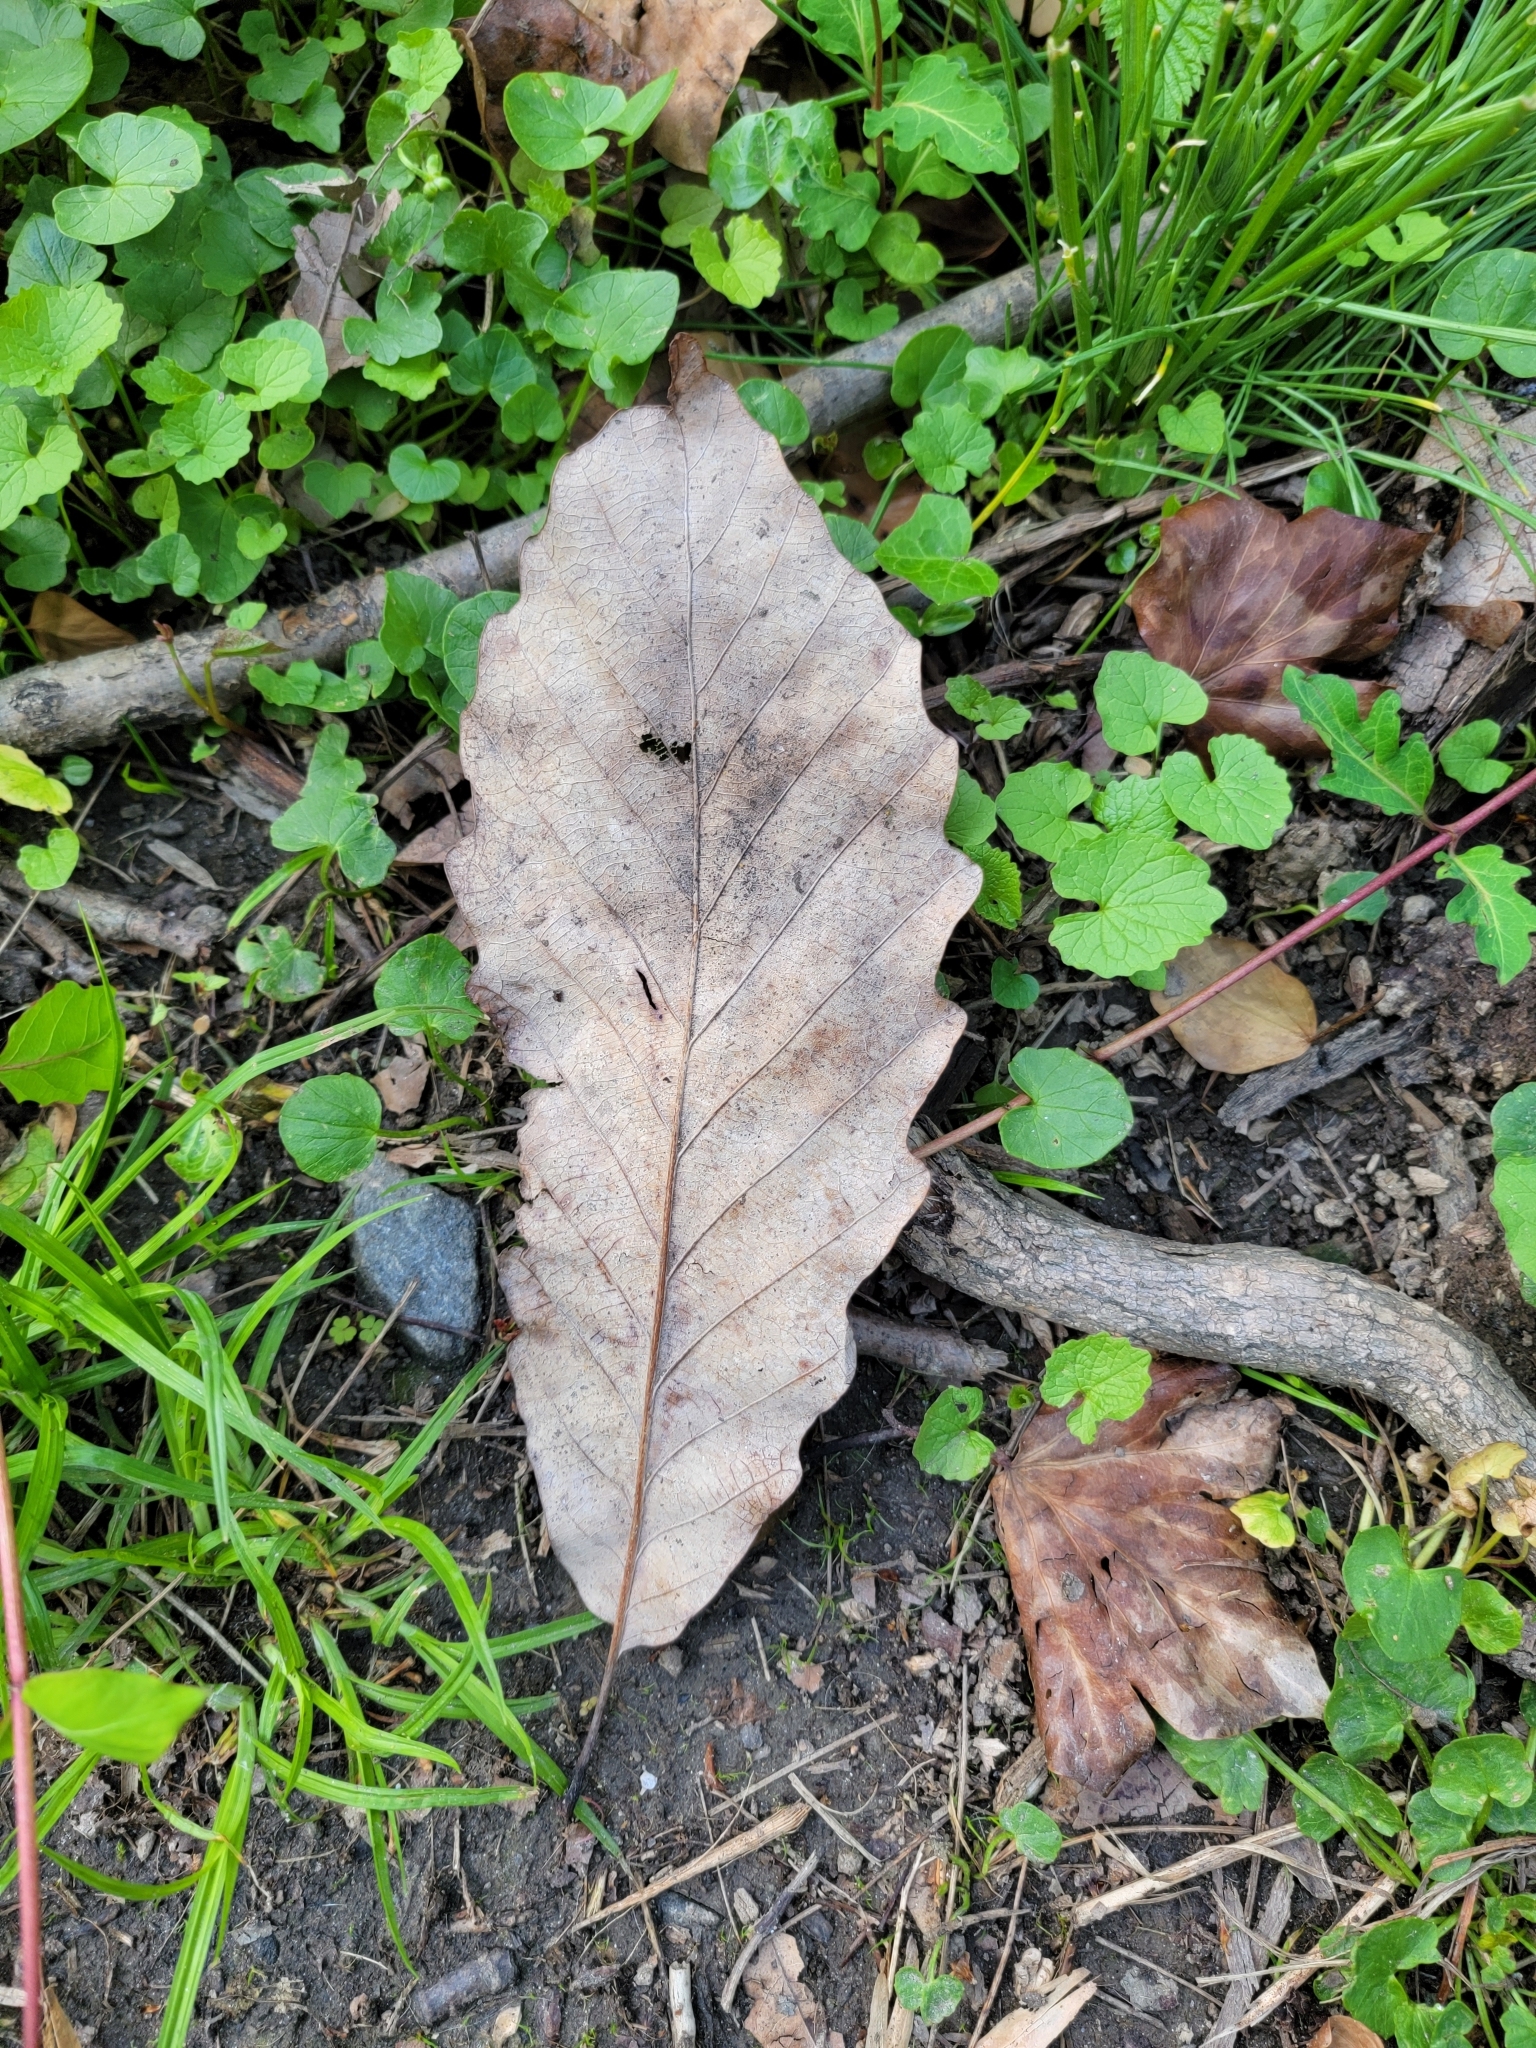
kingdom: Plantae
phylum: Tracheophyta
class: Magnoliopsida
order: Fagales
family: Fagaceae
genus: Quercus
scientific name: Quercus montana
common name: Chestnut oak
